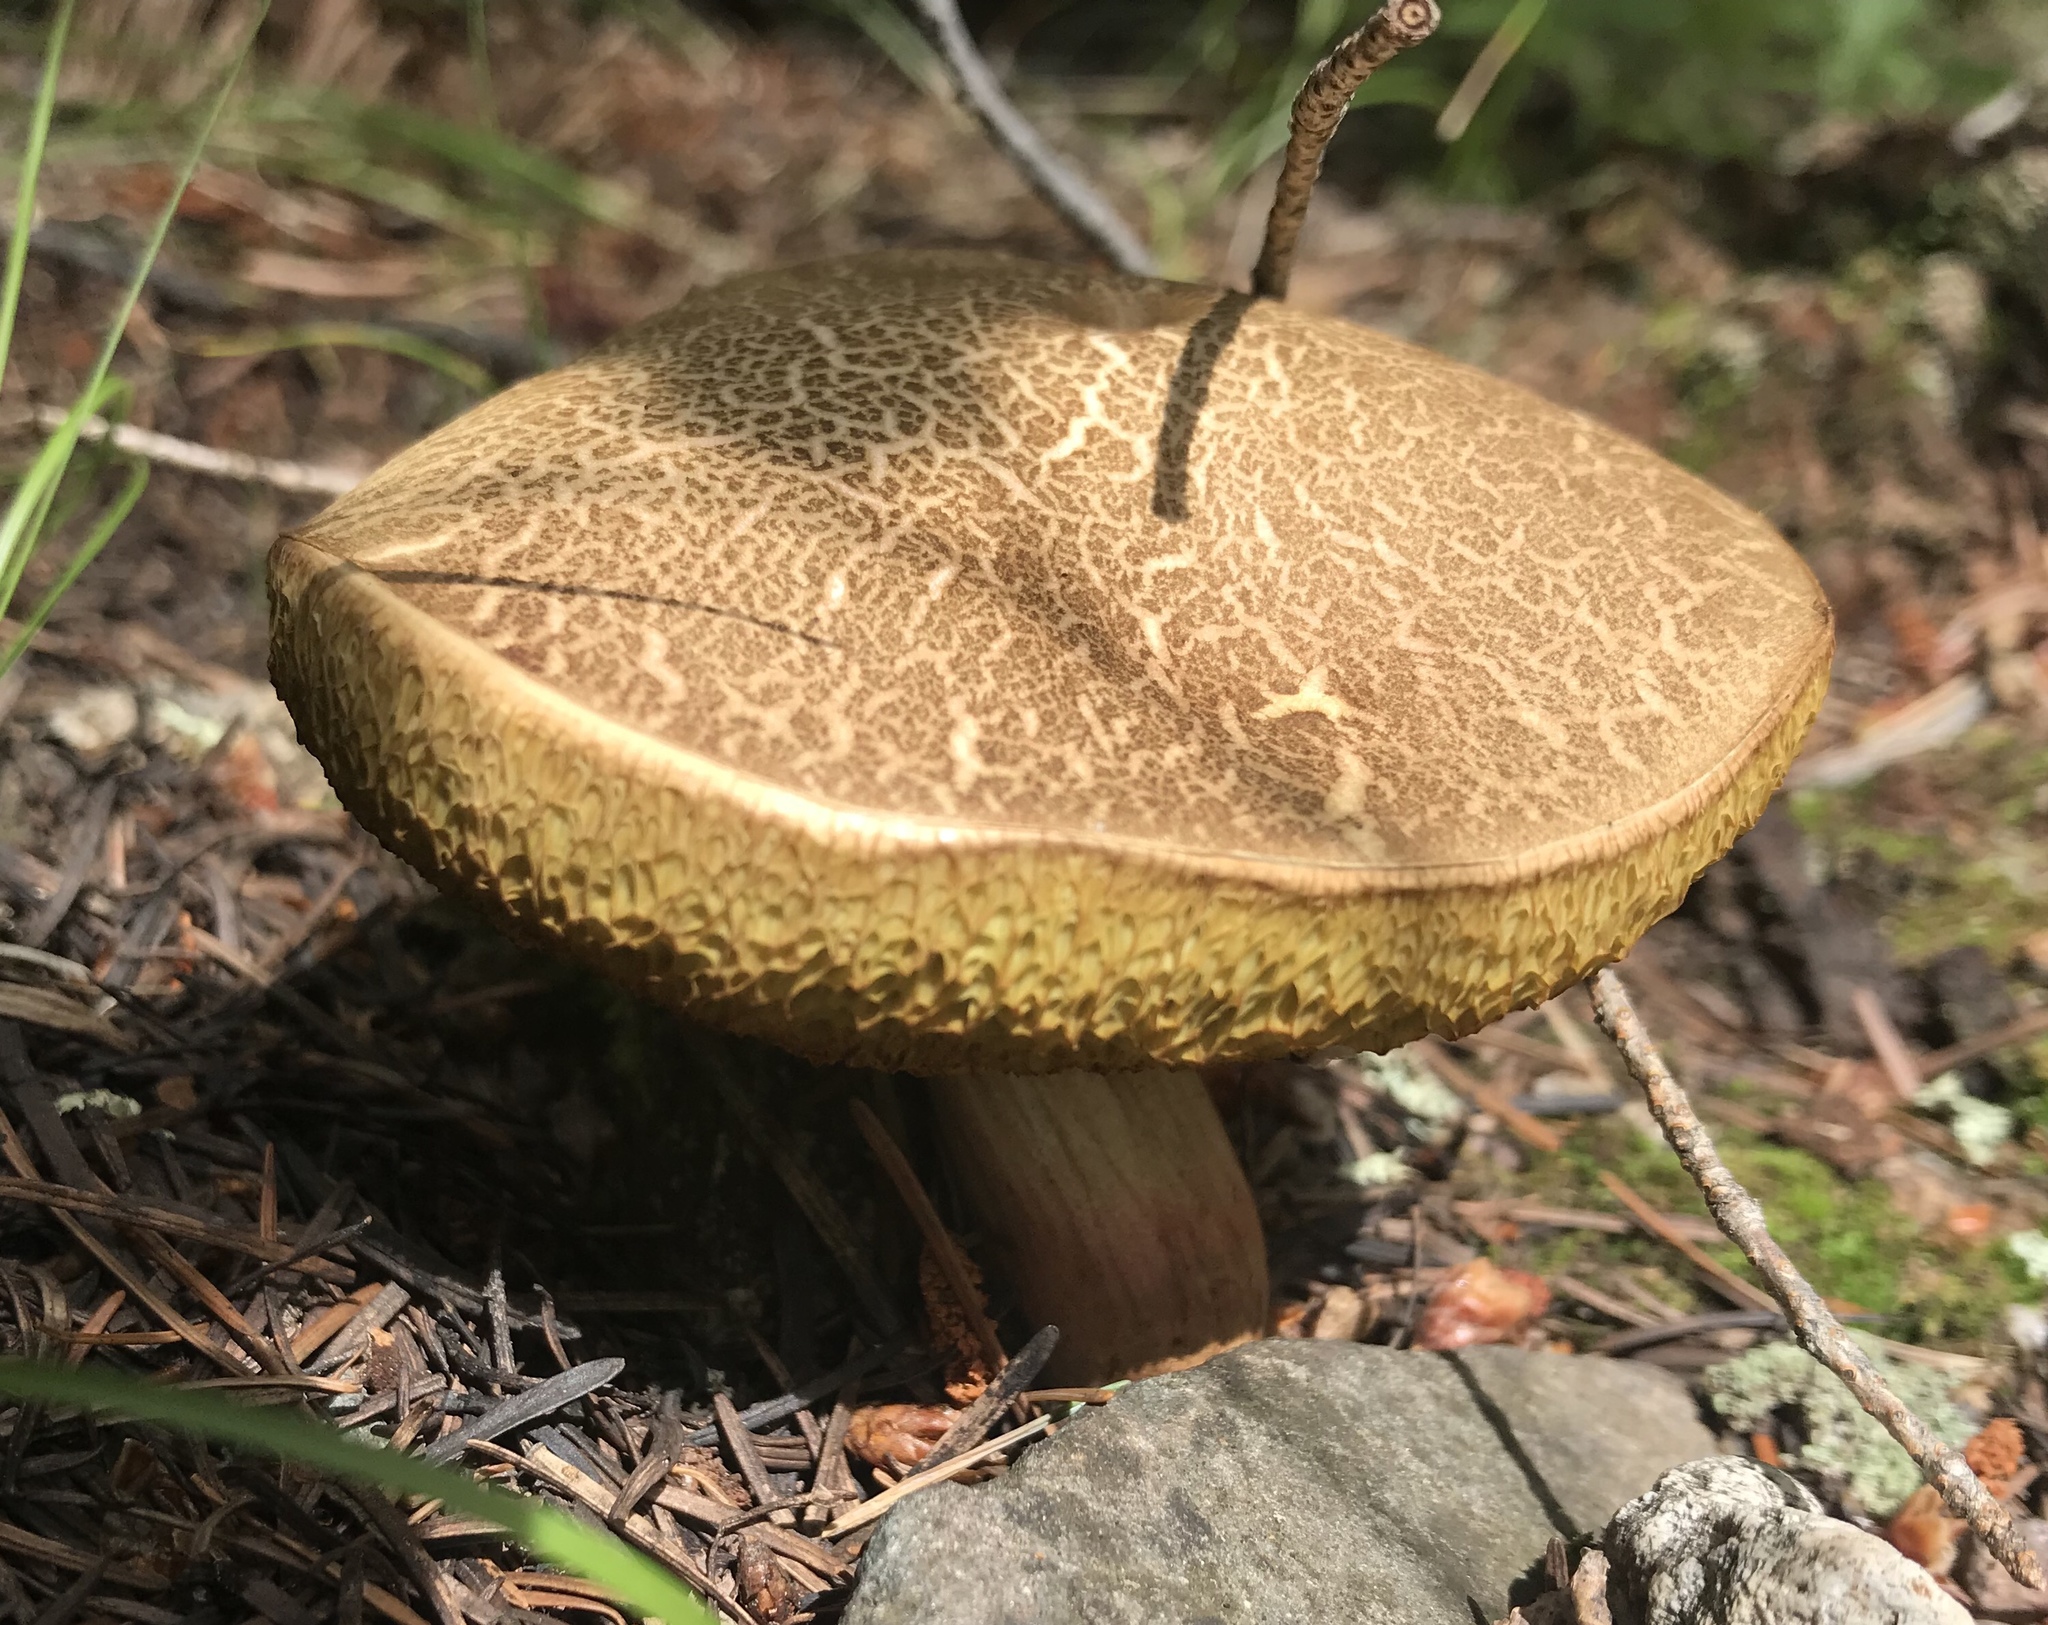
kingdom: Fungi
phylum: Basidiomycota
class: Agaricomycetes
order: Boletales
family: Boletaceae
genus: Xerocomellus
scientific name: Xerocomellus diffractus
